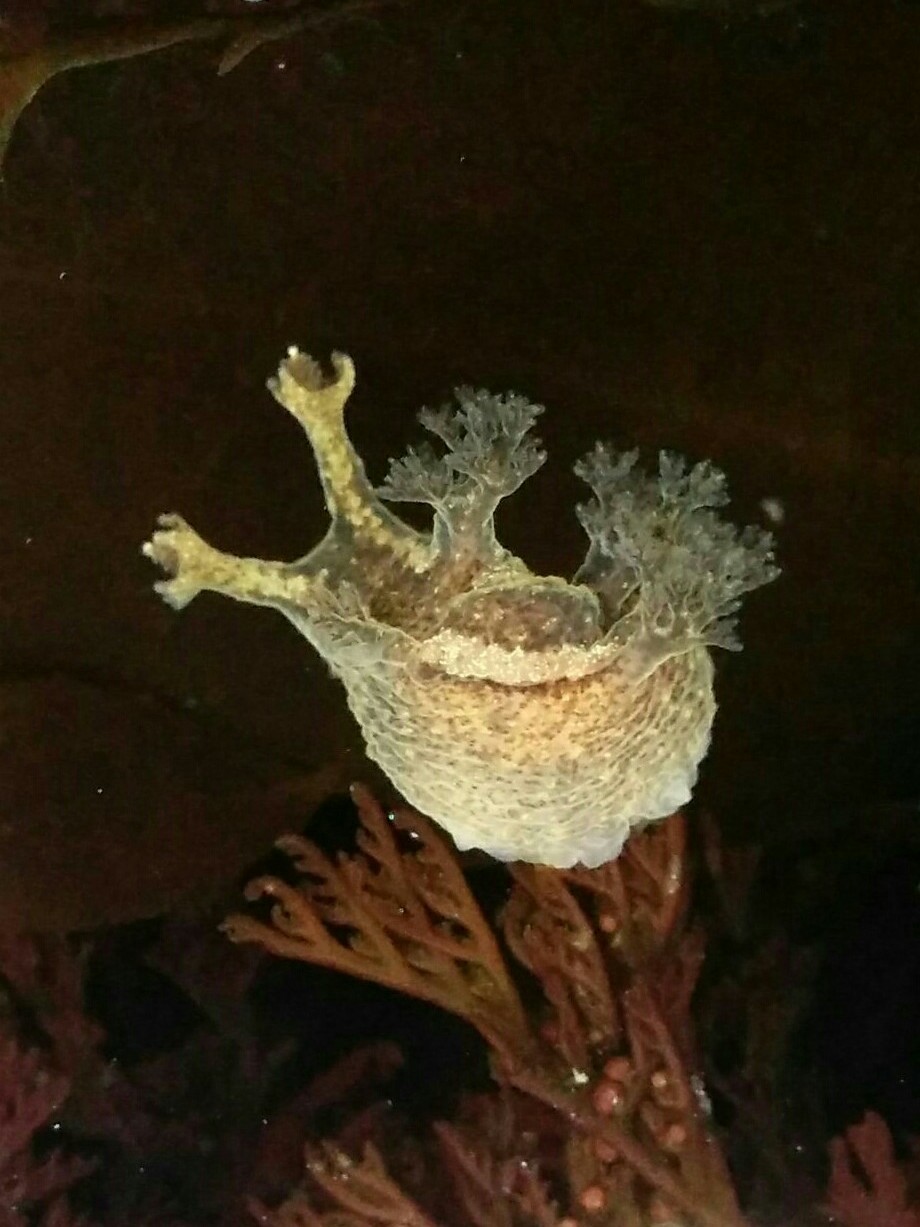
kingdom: Animalia
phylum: Mollusca
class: Gastropoda
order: Nudibranchia
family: Dendronotidae
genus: Dendronotus
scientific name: Dendronotus subramosus
